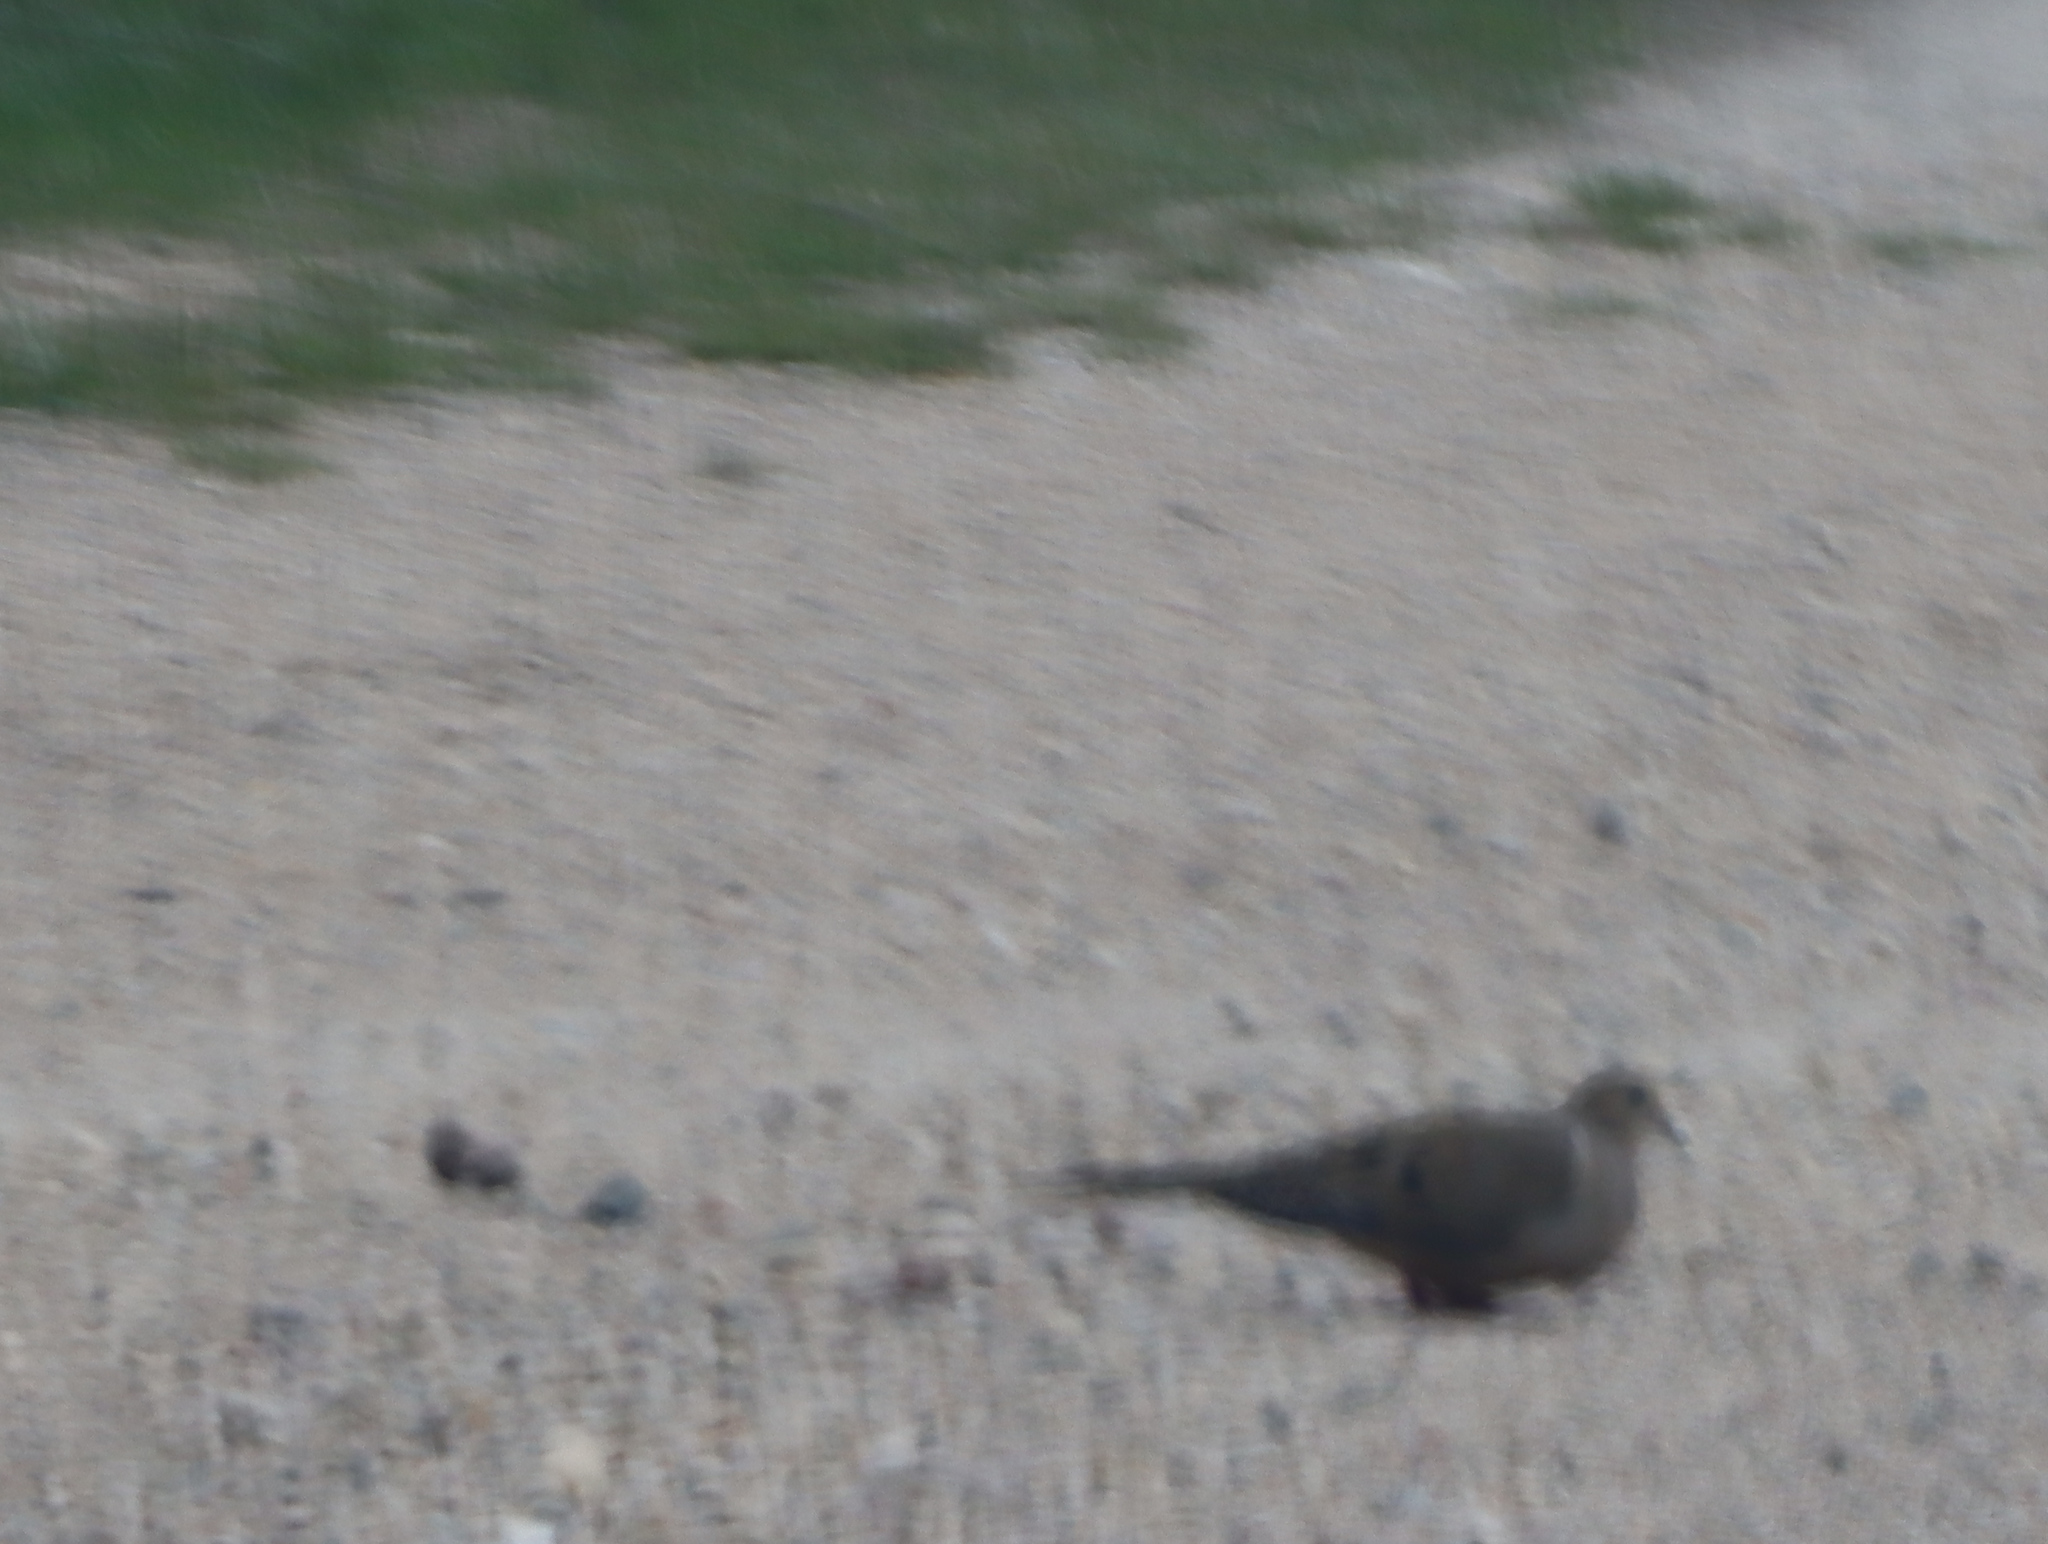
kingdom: Animalia
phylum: Chordata
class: Aves
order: Columbiformes
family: Columbidae
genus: Zenaida
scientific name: Zenaida macroura
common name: Mourning dove
